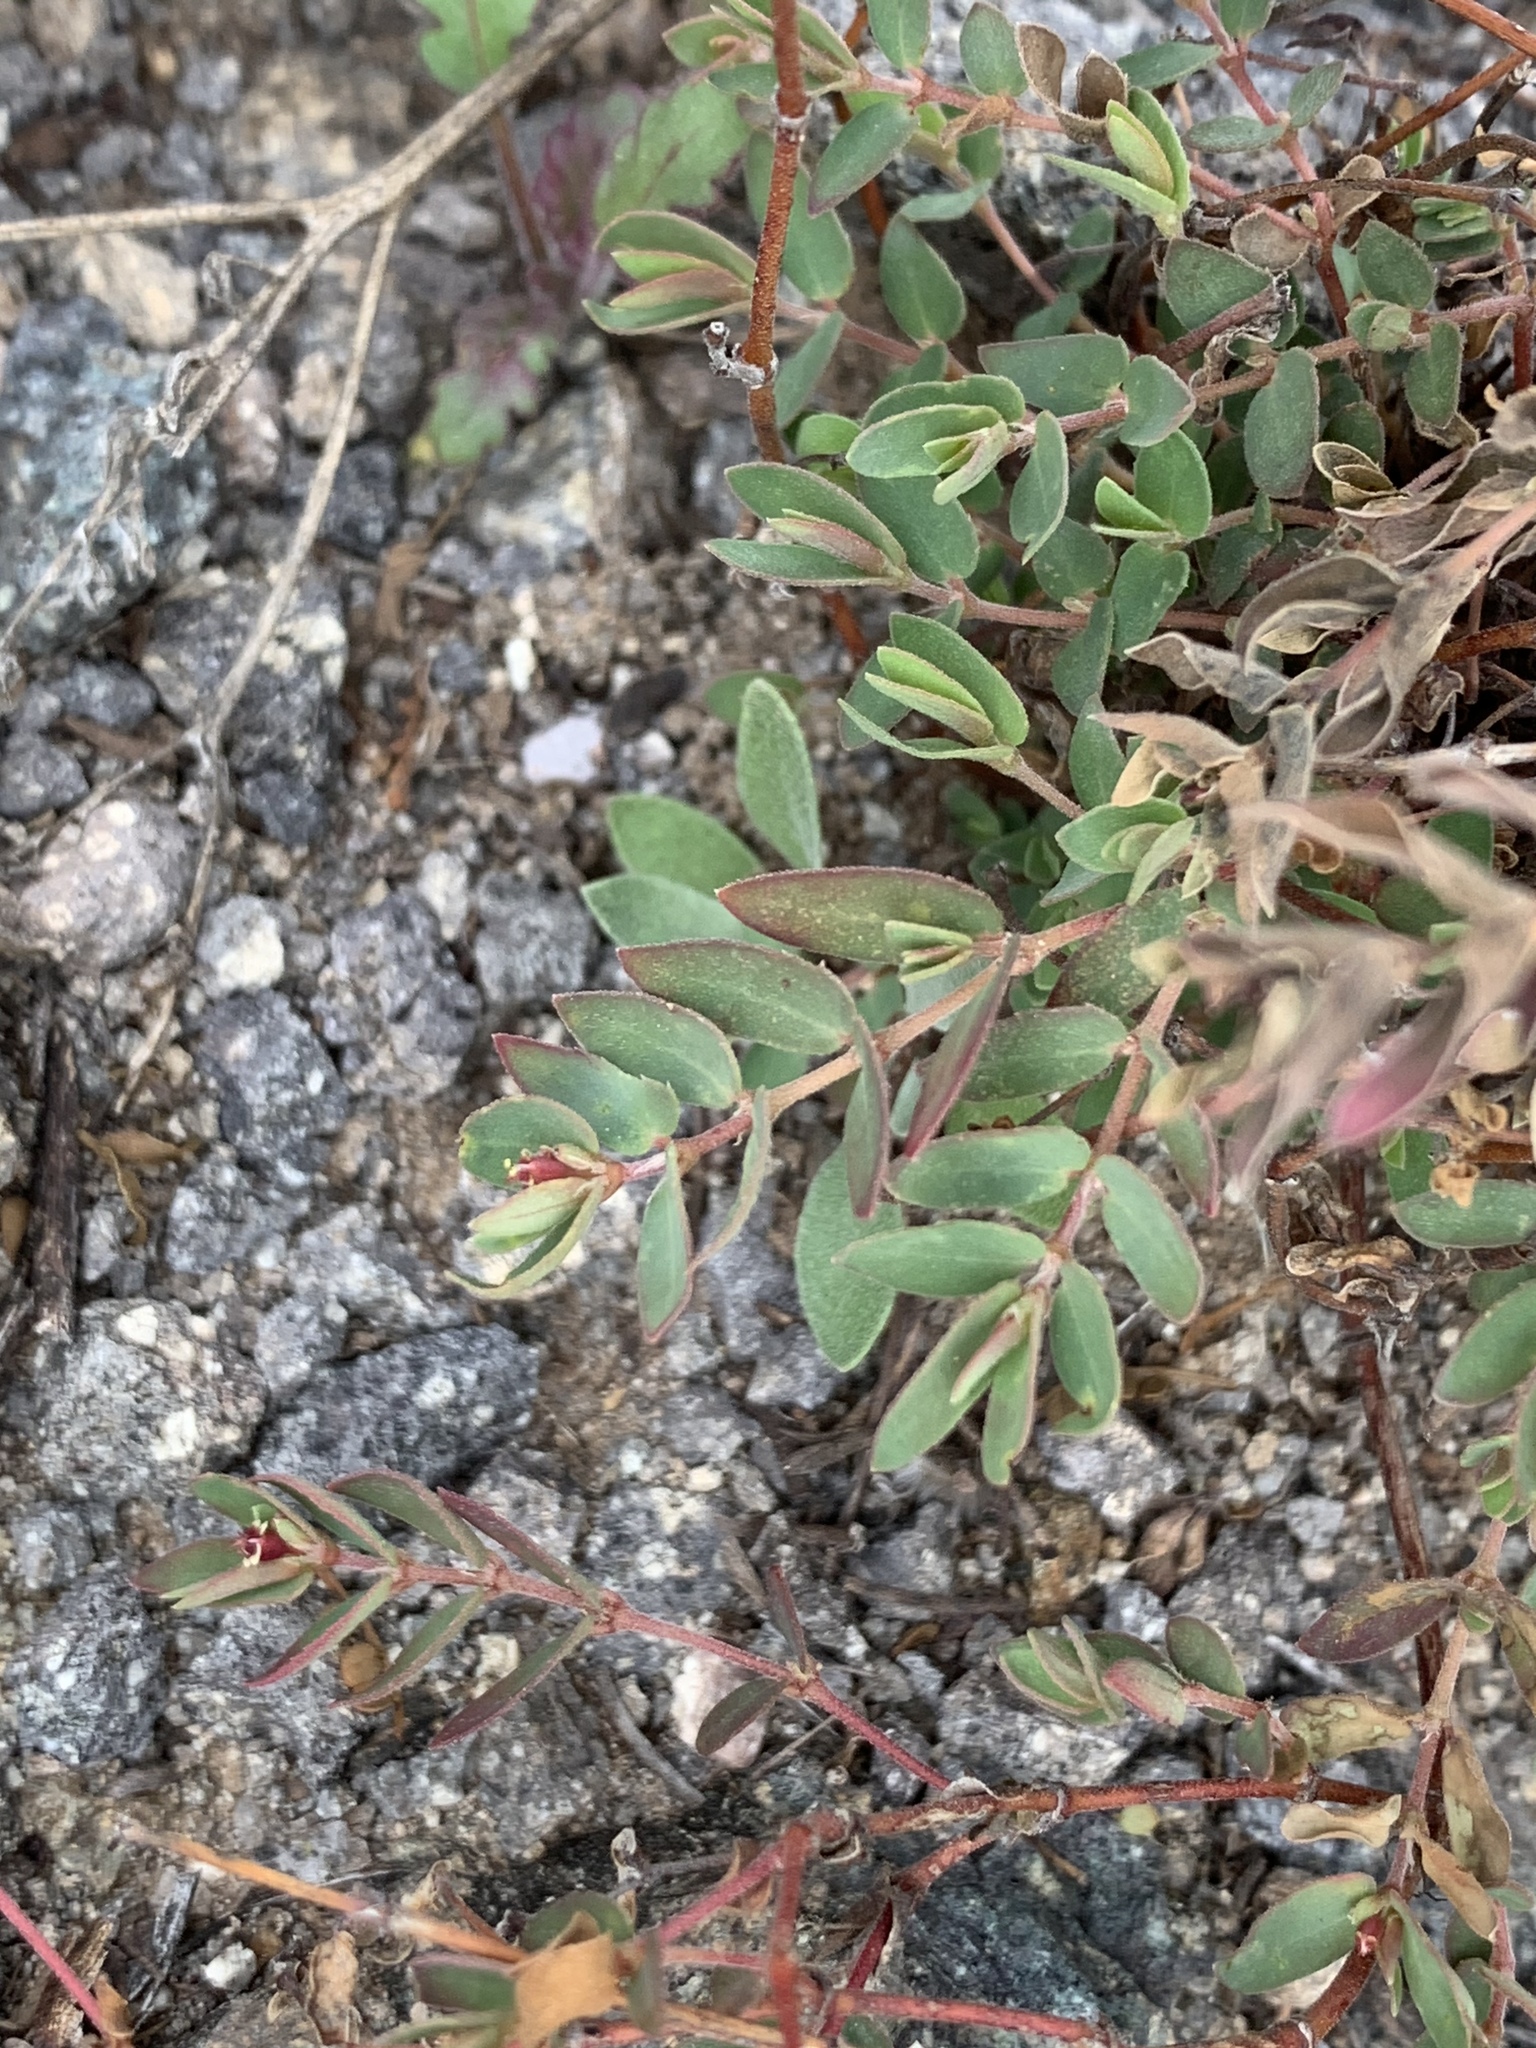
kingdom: Plantae
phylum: Tracheophyta
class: Magnoliopsida
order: Malpighiales
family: Euphorbiaceae
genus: Euphorbia
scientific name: Euphorbia capitellata
